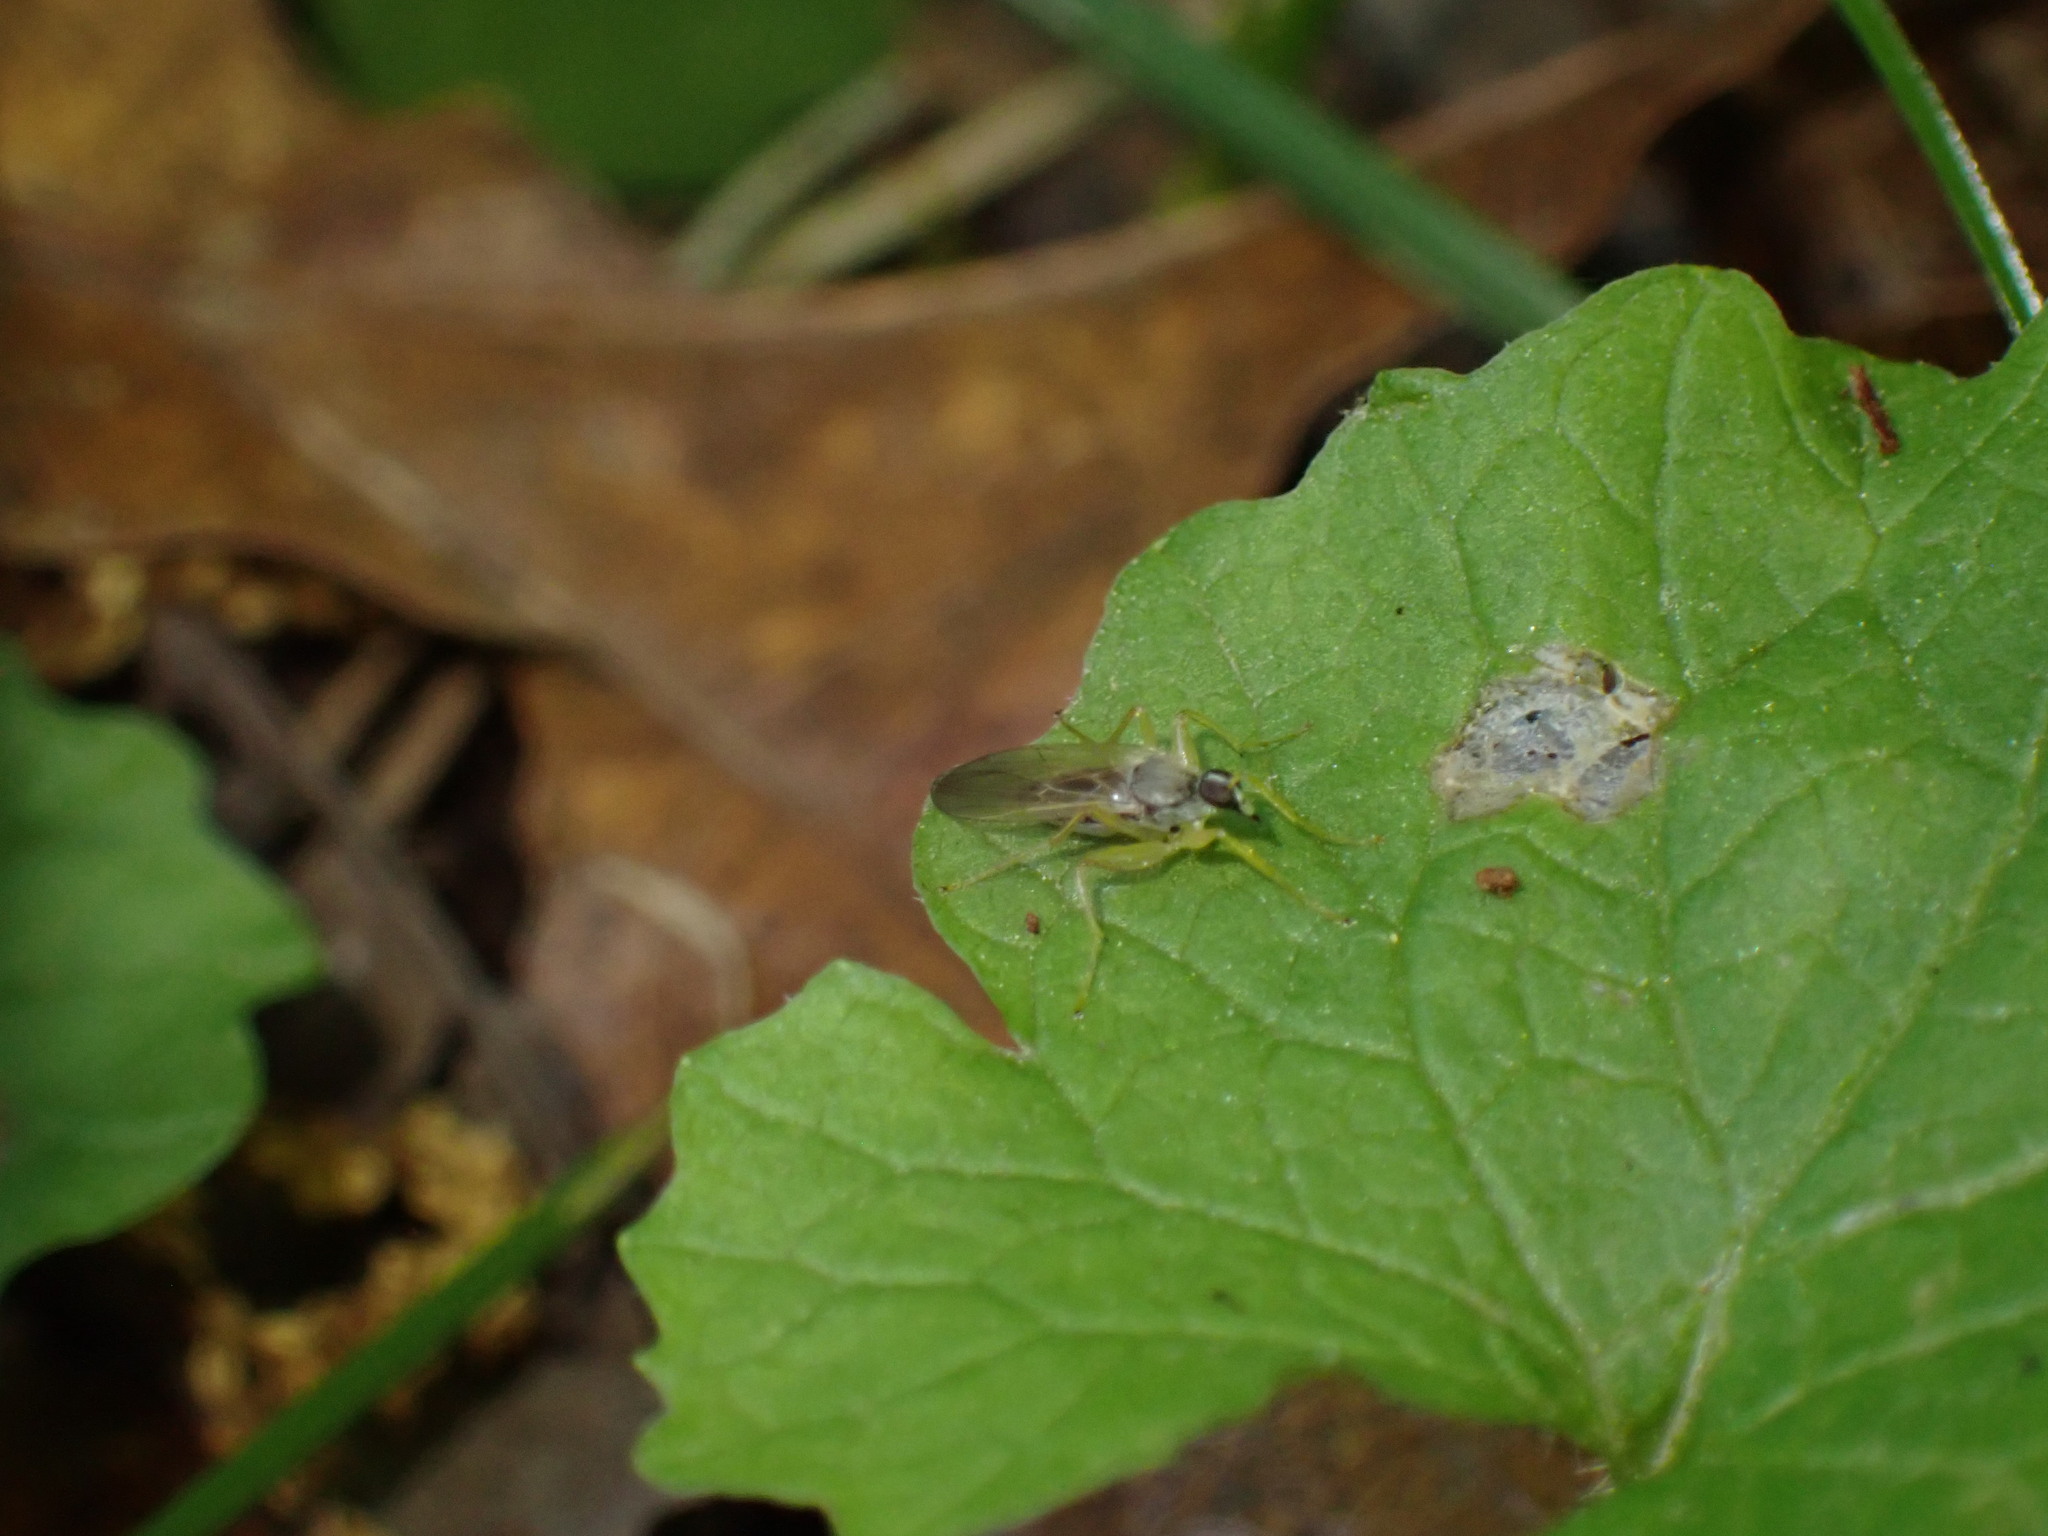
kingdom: Animalia
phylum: Arthropoda
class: Insecta
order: Diptera
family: Hybotidae
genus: Platypalpus
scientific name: Platypalpus
